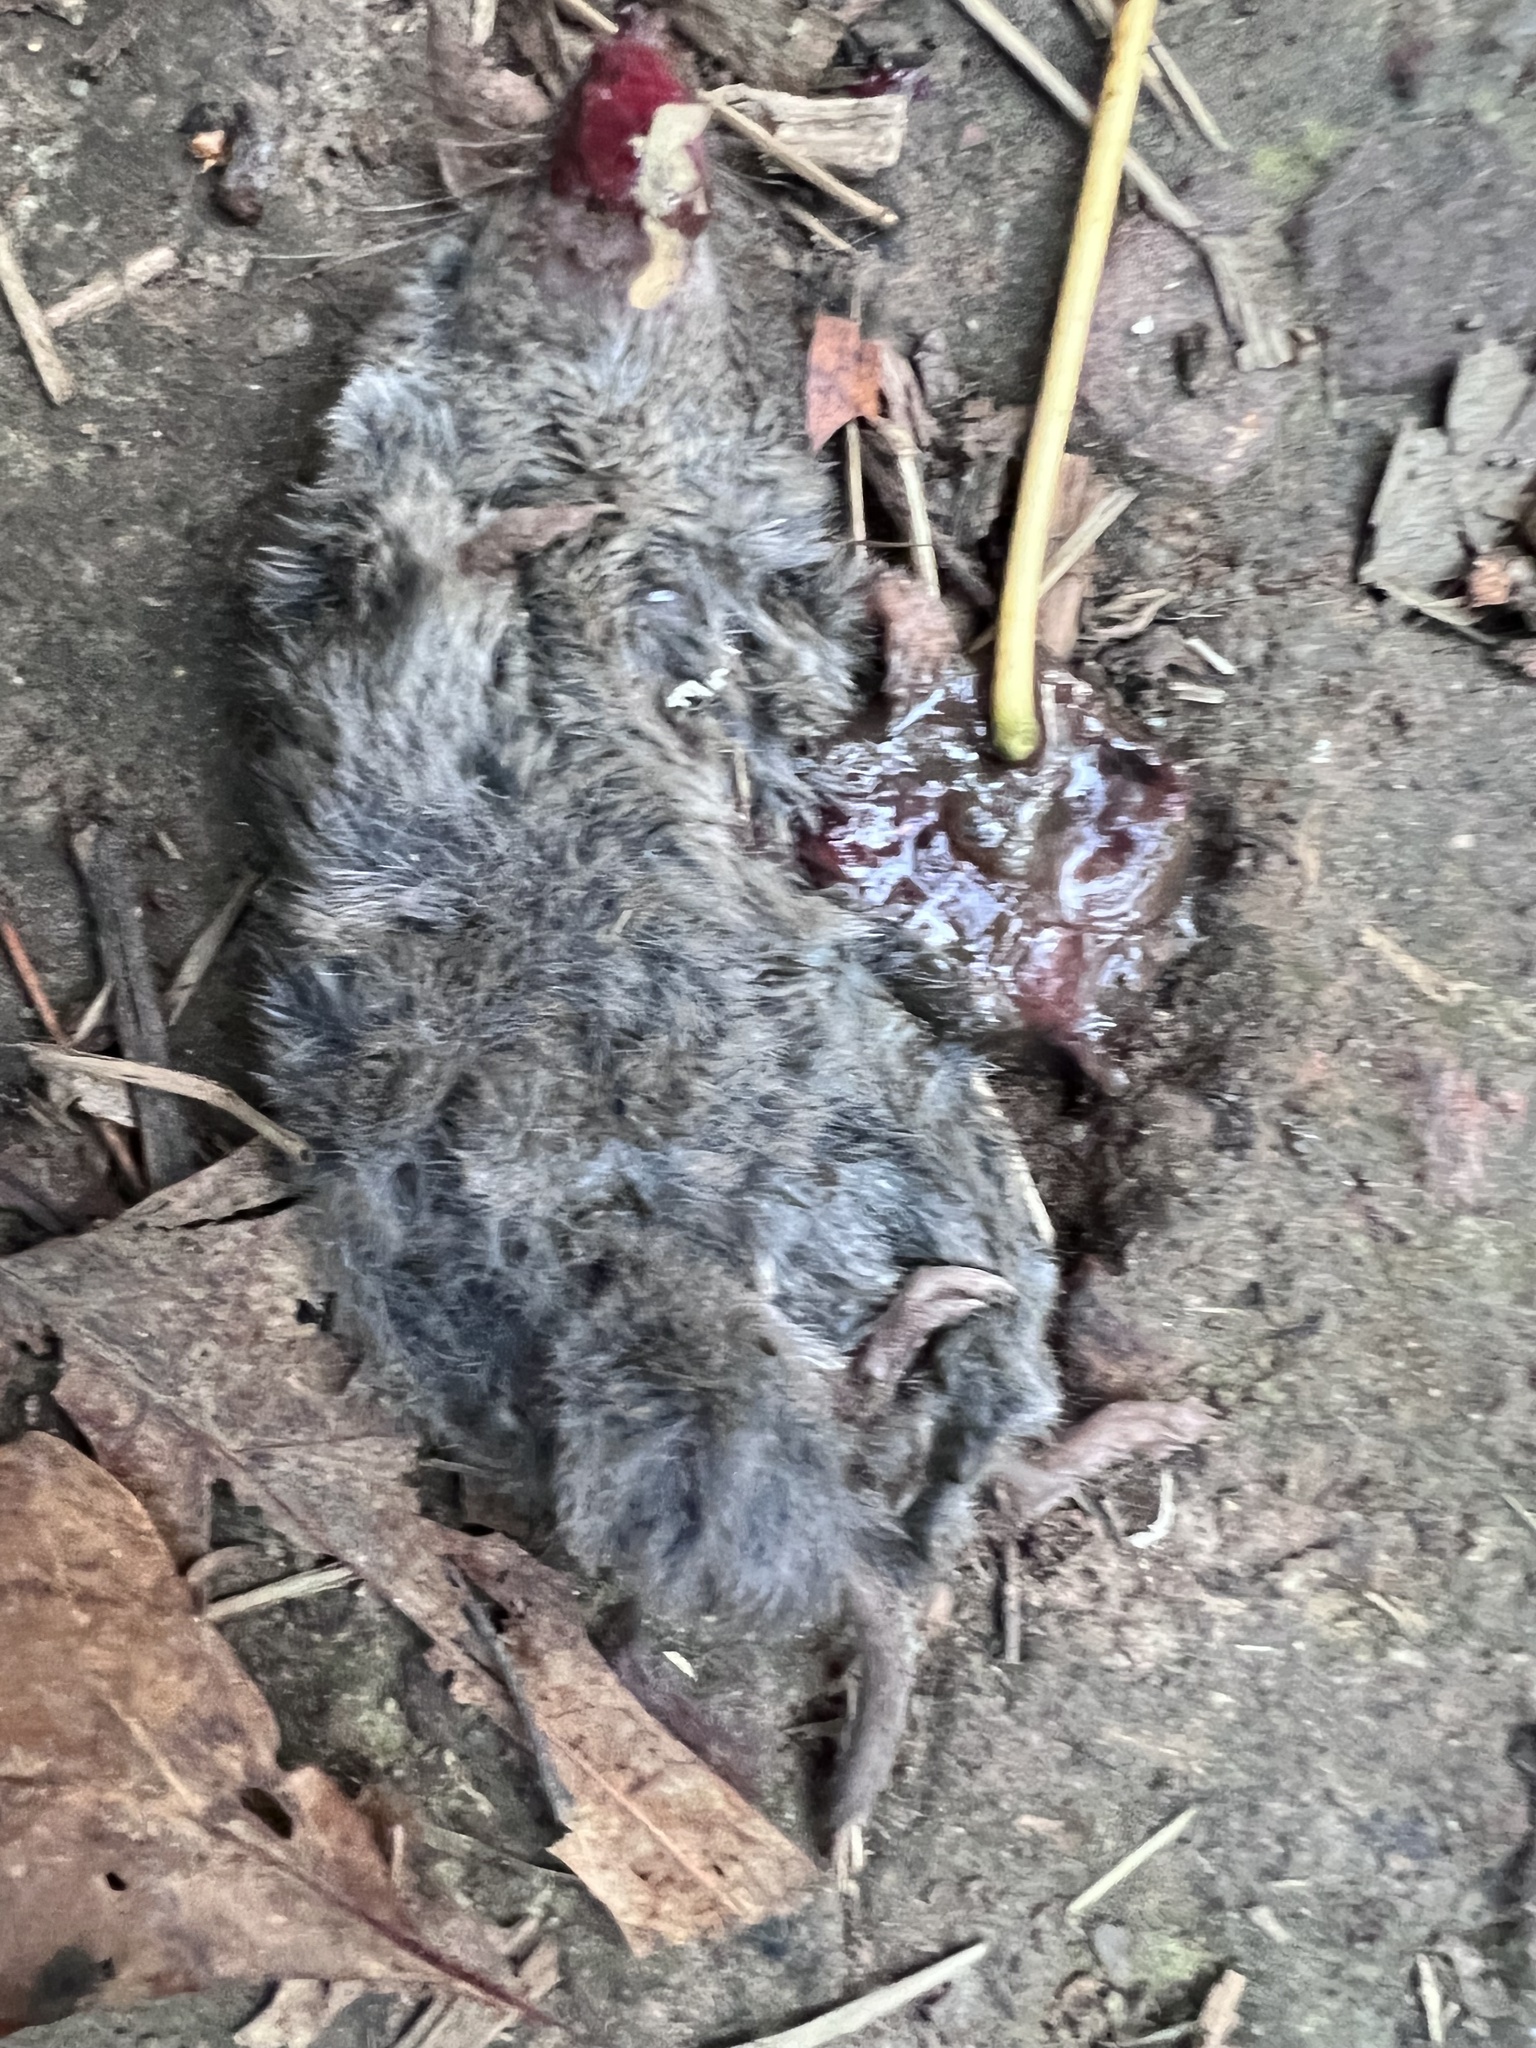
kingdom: Animalia
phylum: Chordata
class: Mammalia
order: Soricomorpha
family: Soricidae
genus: Blarina
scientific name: Blarina brevicauda
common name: Northern short-tailed shrew
